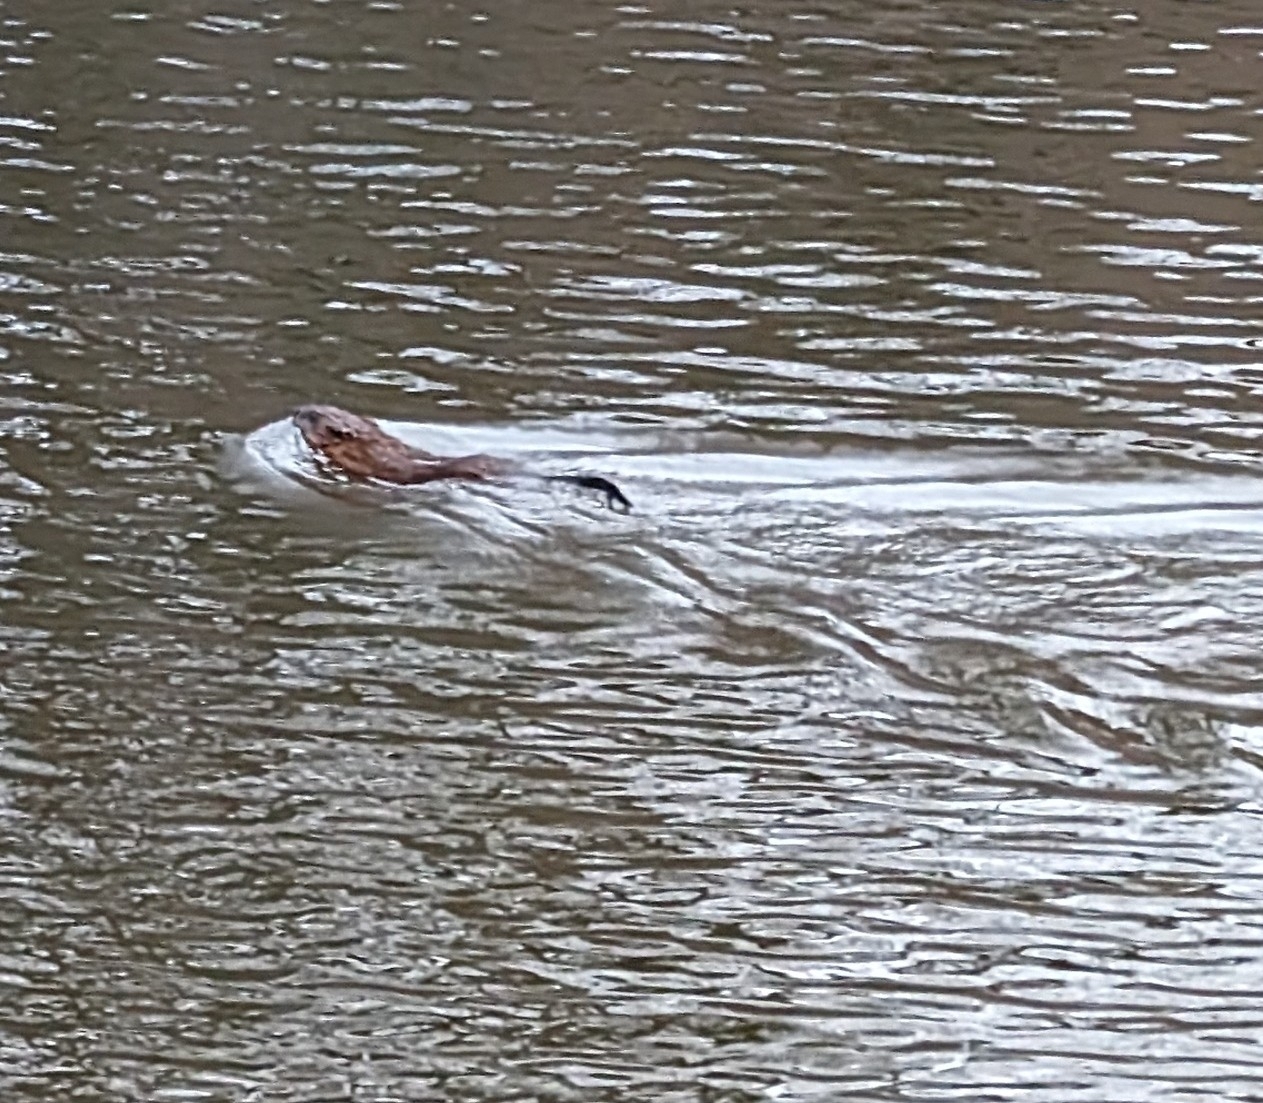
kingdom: Animalia
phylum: Chordata
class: Mammalia
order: Rodentia
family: Cricetidae
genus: Ondatra
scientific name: Ondatra zibethicus
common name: Muskrat
